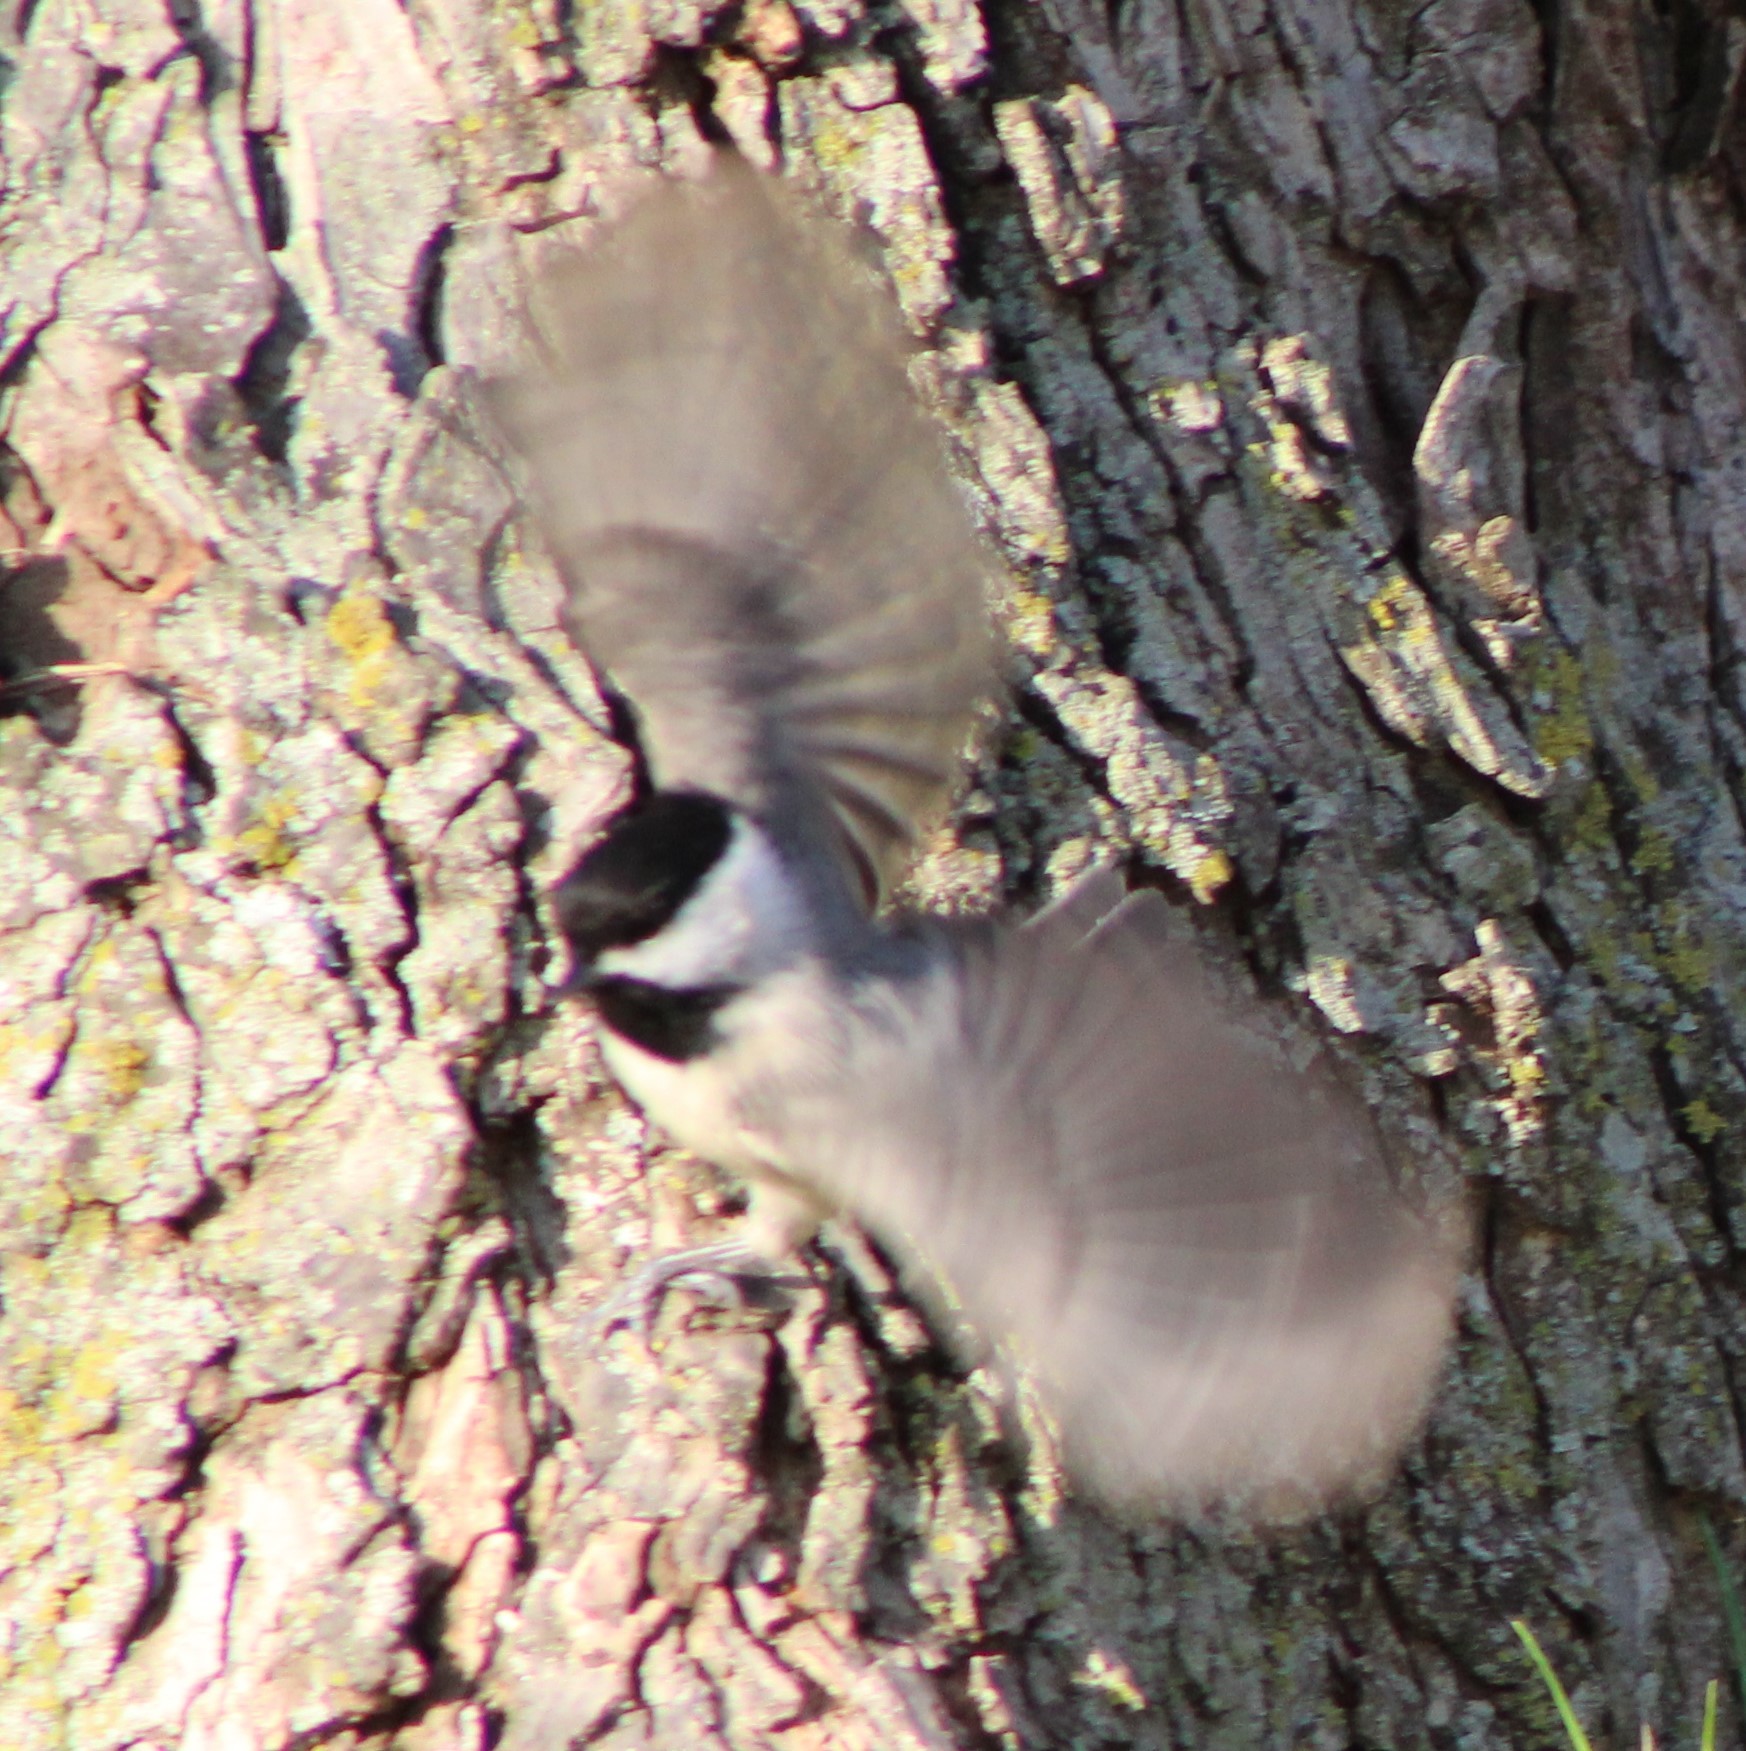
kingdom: Animalia
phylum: Chordata
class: Aves
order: Passeriformes
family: Paridae
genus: Poecile
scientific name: Poecile carolinensis
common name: Carolina chickadee
